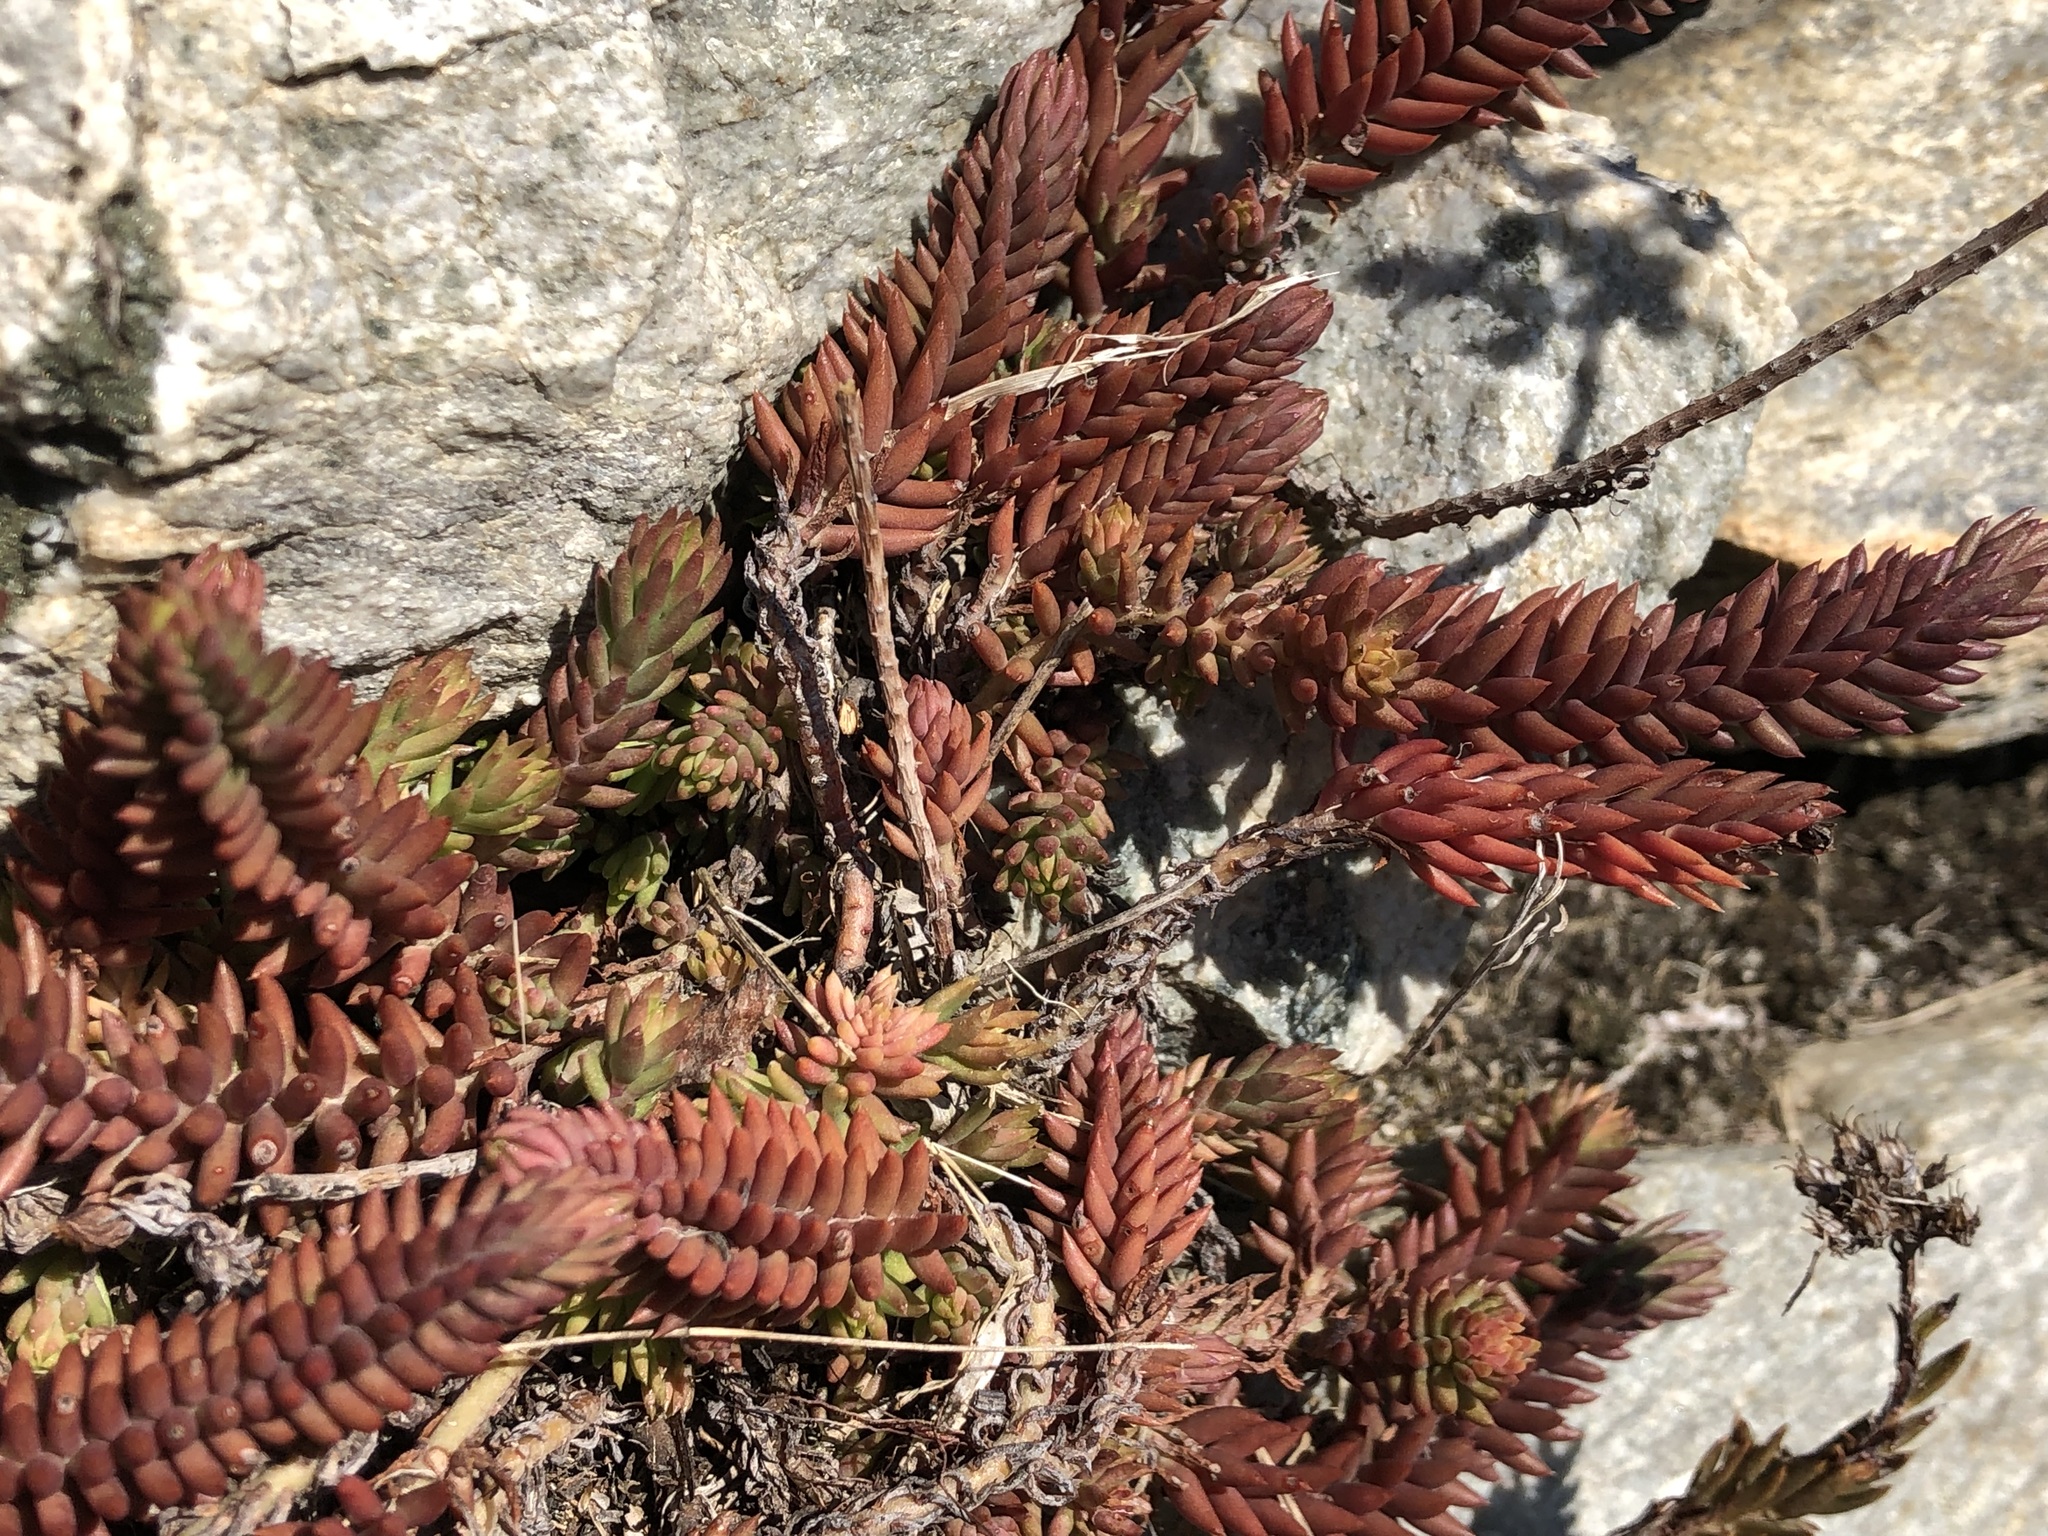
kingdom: Plantae
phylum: Tracheophyta
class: Magnoliopsida
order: Saxifragales
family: Crassulaceae
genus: Petrosedum
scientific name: Petrosedum
